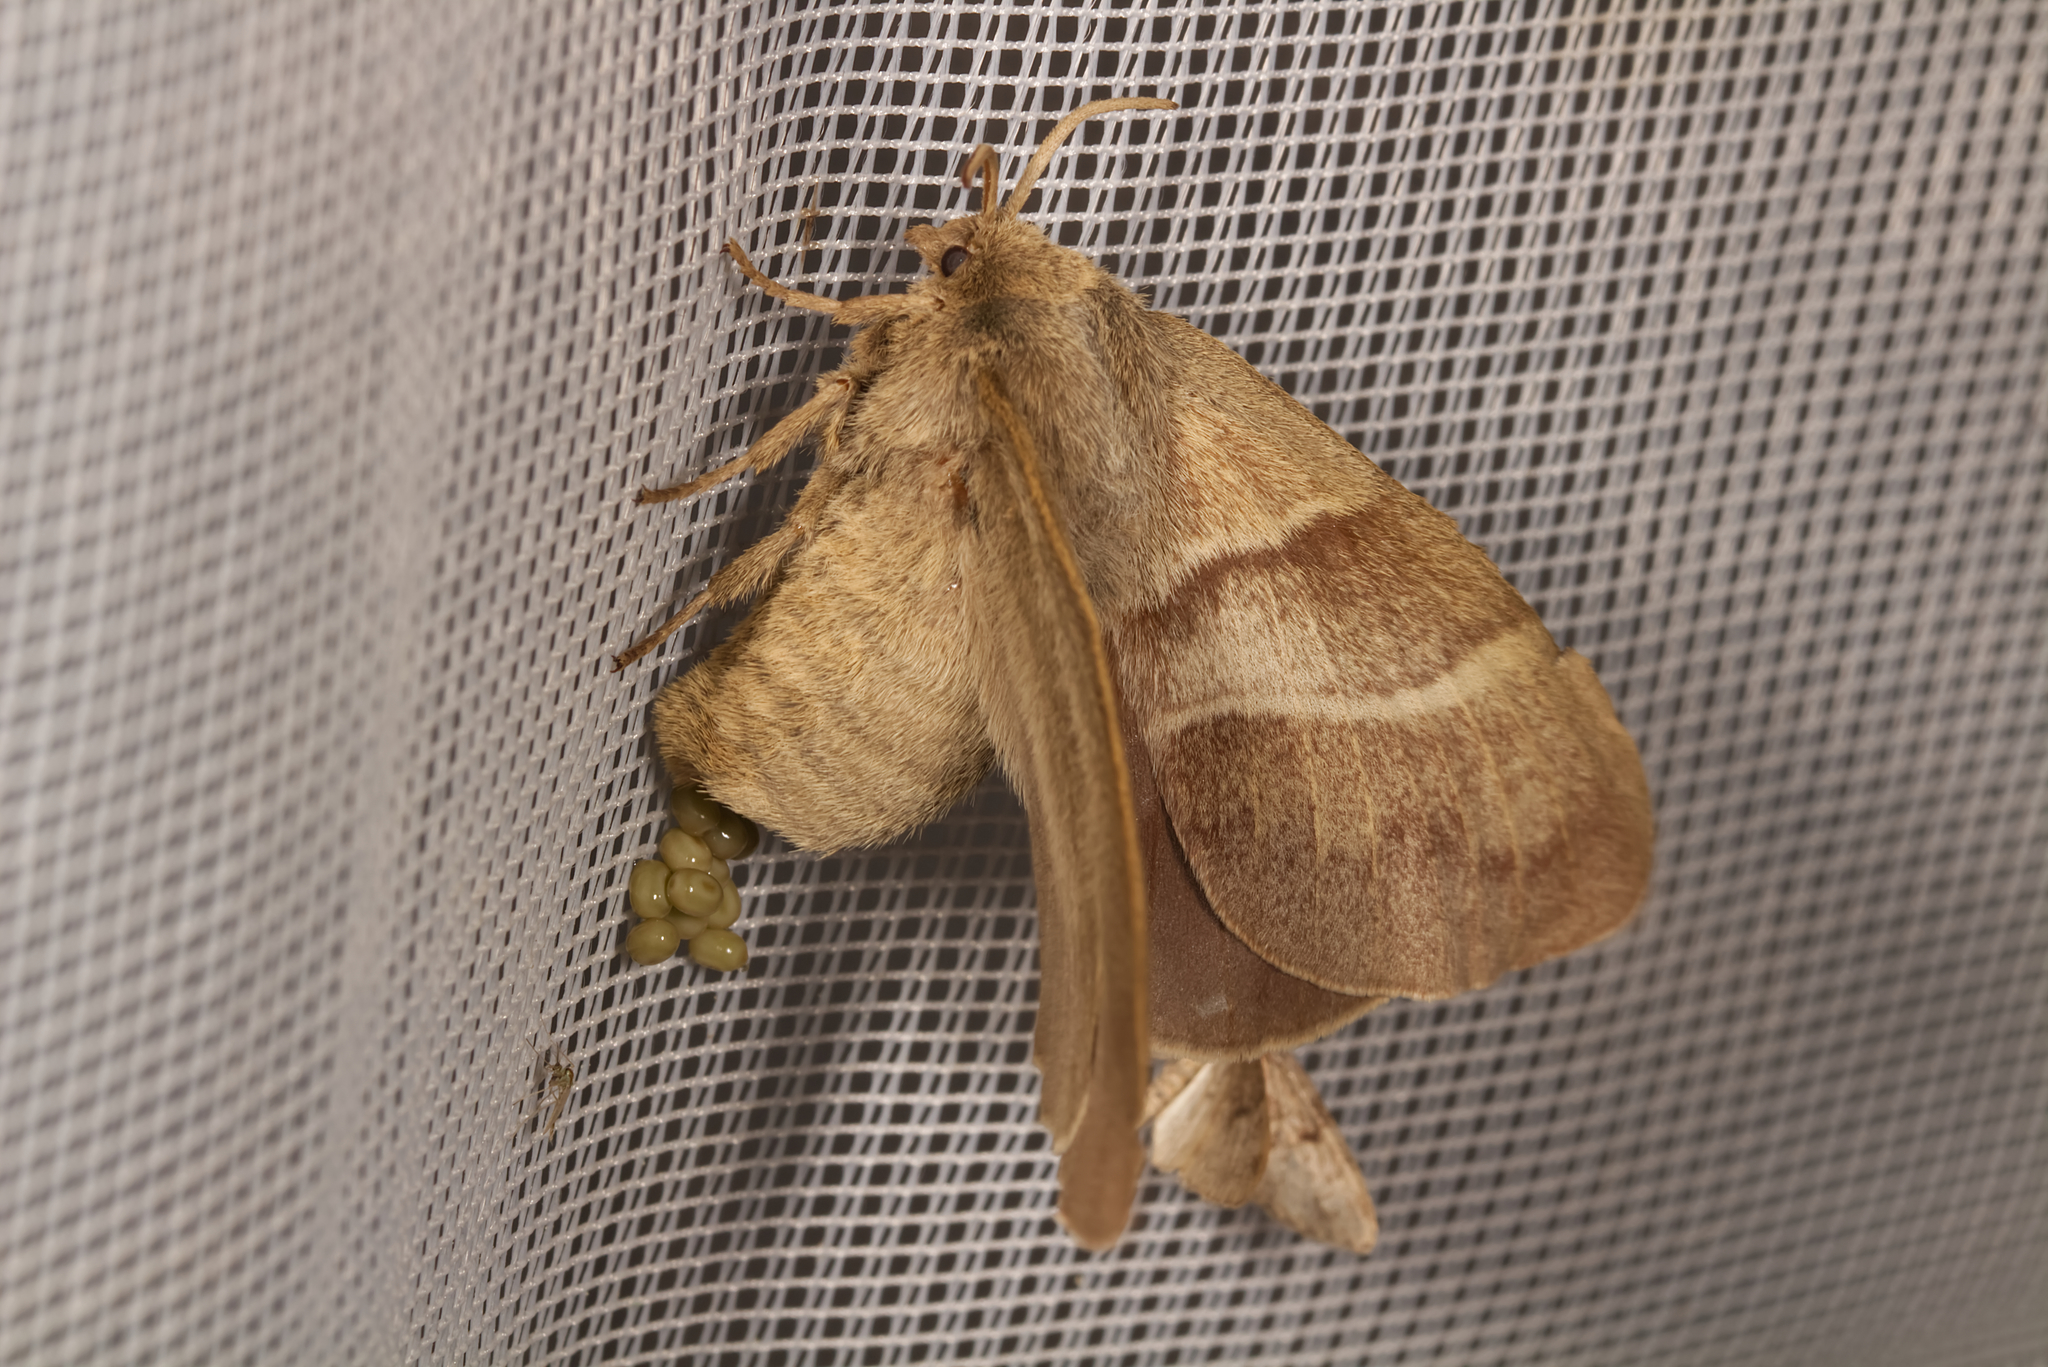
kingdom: Animalia
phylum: Arthropoda
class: Insecta
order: Lepidoptera
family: Lasiocampidae
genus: Macrothylacia
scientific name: Macrothylacia rubi
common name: Fox moth
